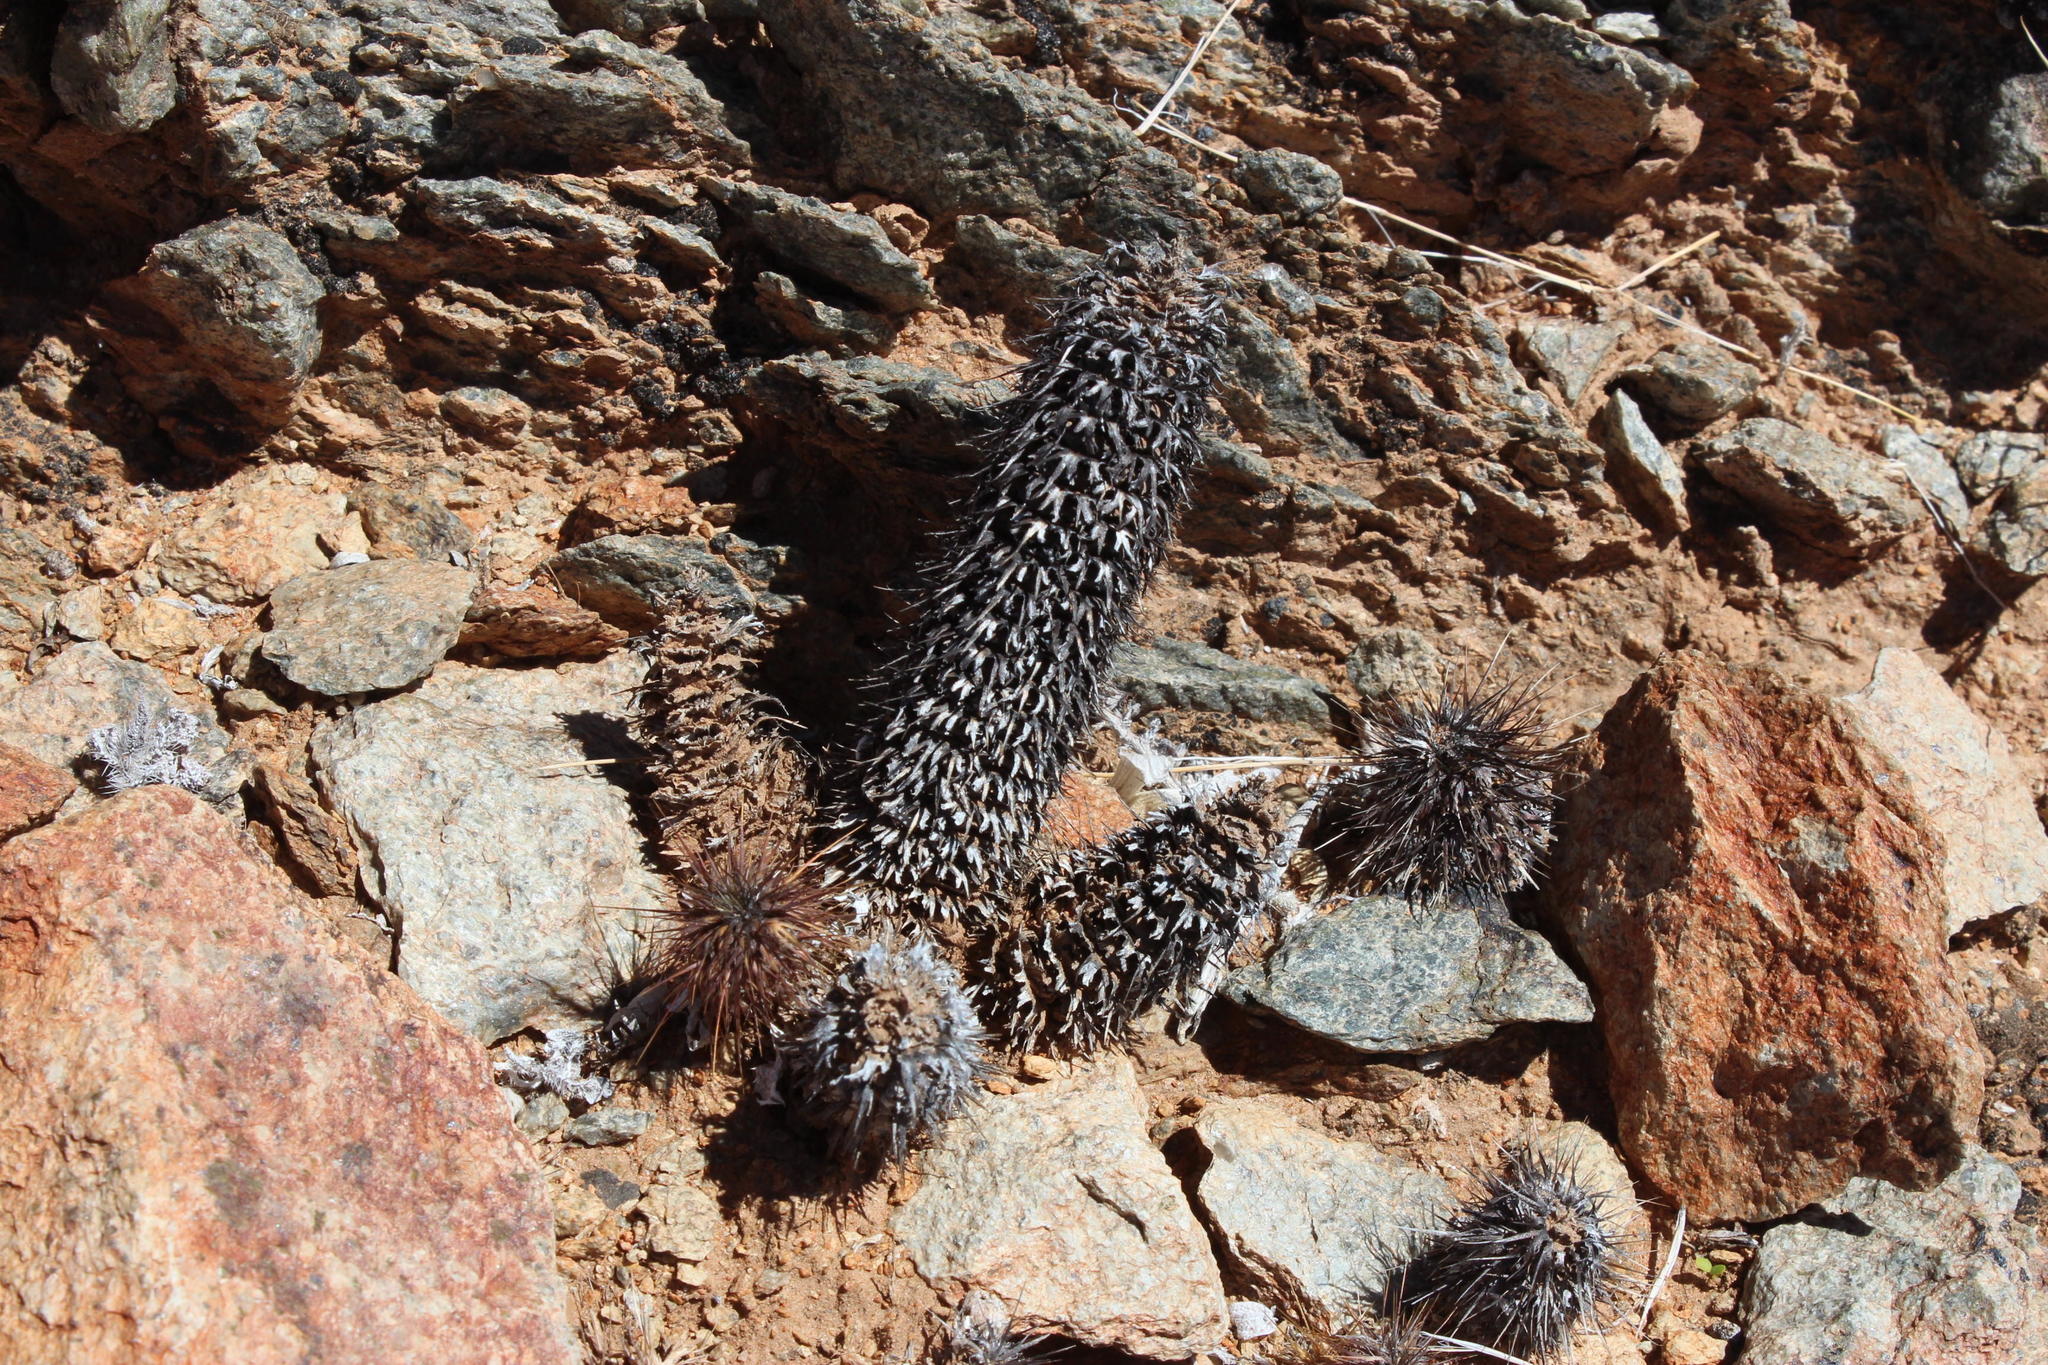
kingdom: Plantae
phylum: Tracheophyta
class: Magnoliopsida
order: Lamiales
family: Acanthaceae
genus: Acanthopsis
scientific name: Acanthopsis disperma
